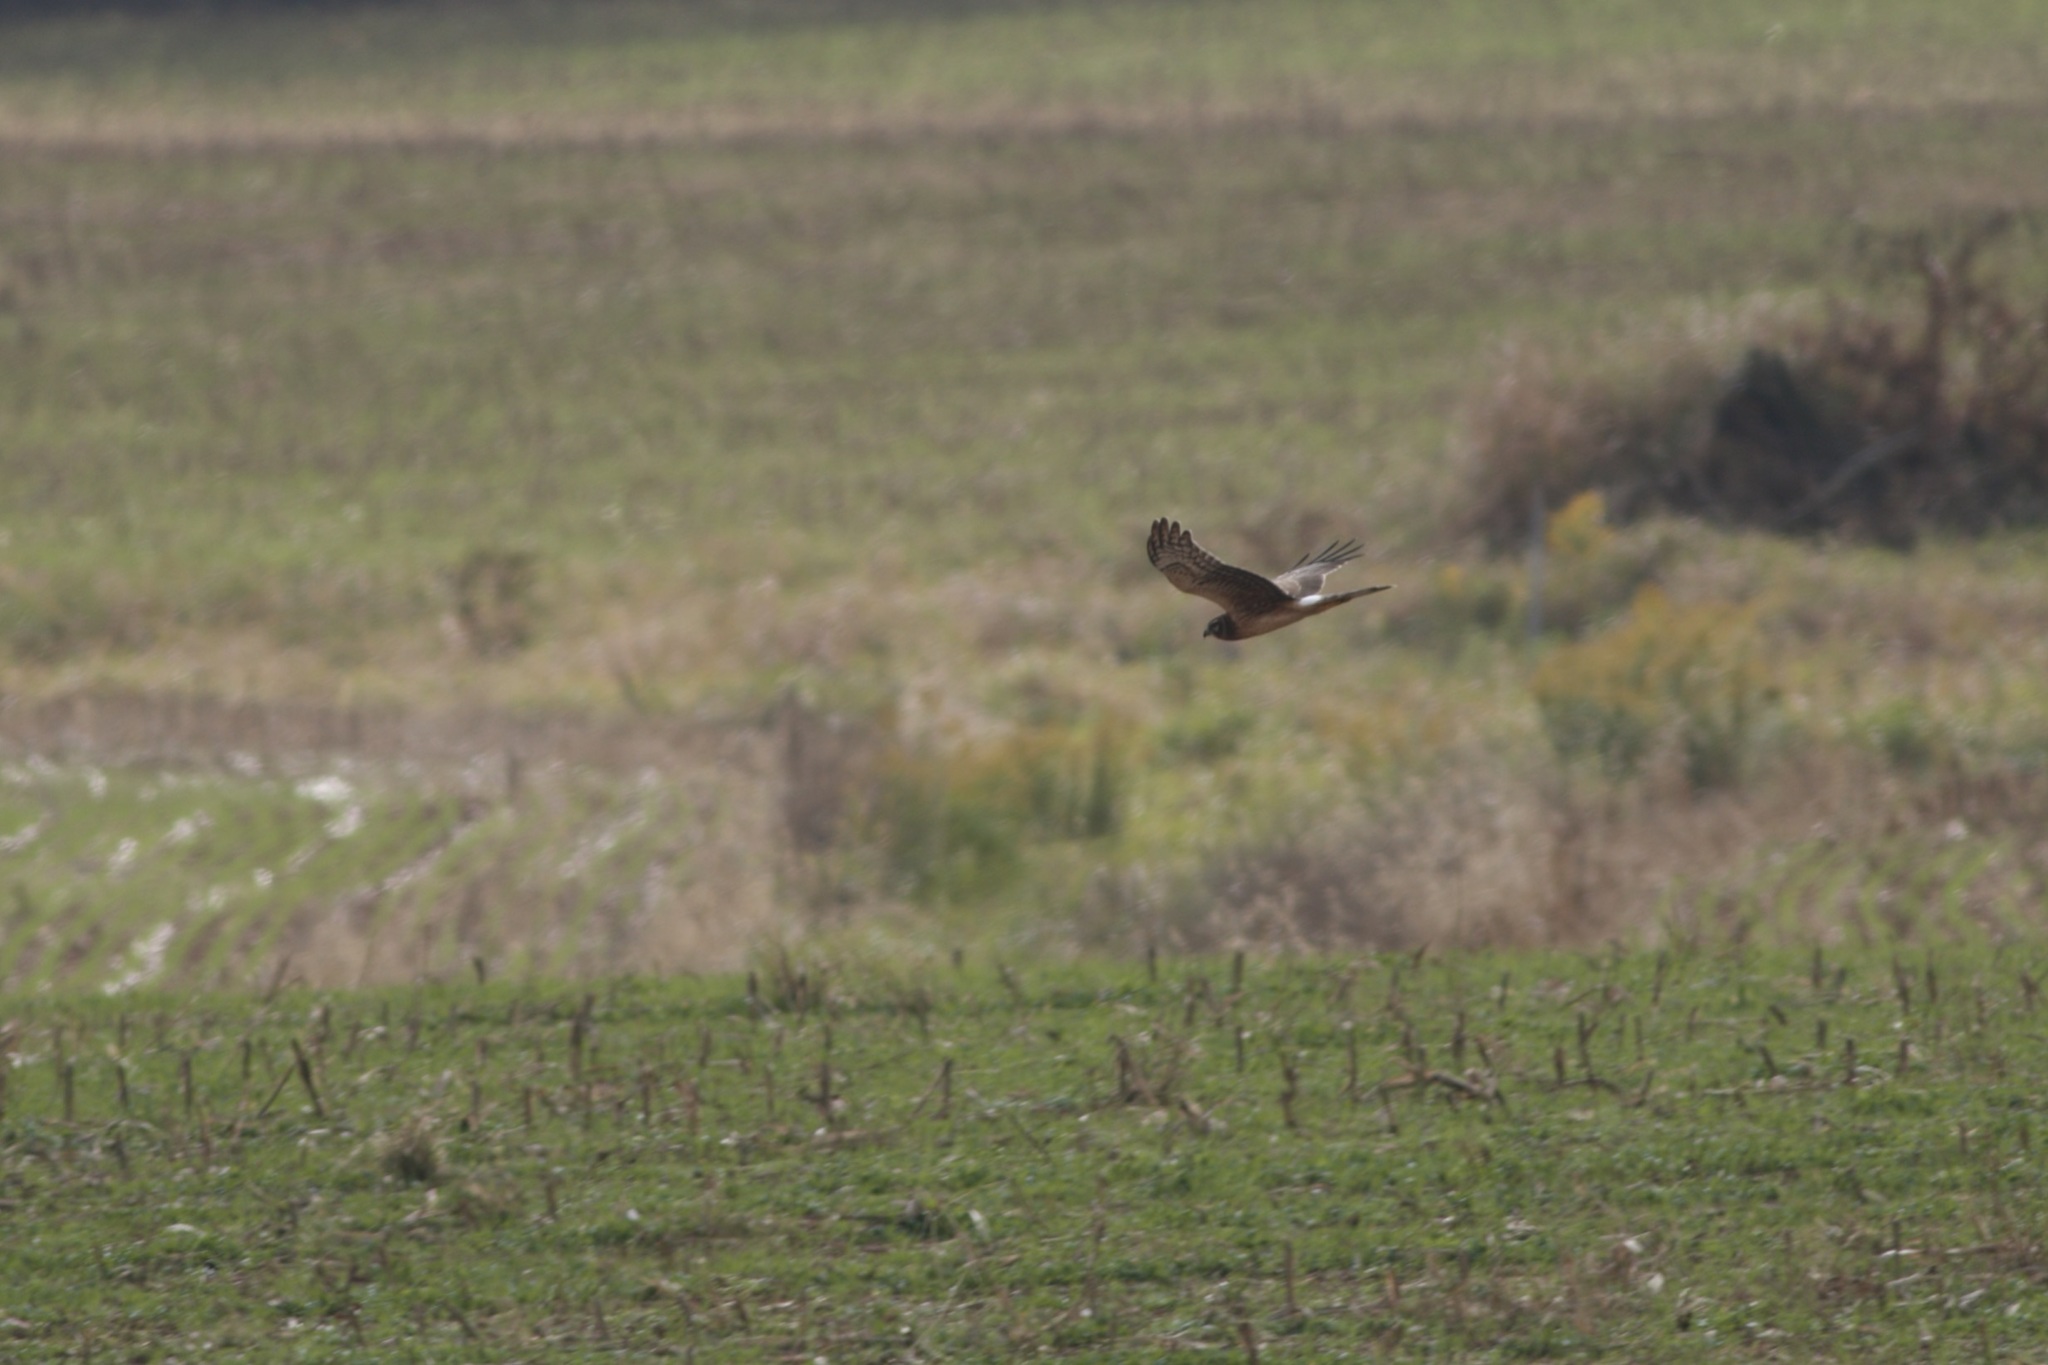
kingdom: Animalia
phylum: Chordata
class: Aves
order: Accipitriformes
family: Accipitridae
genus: Circus
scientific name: Circus cyaneus
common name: Hen harrier
